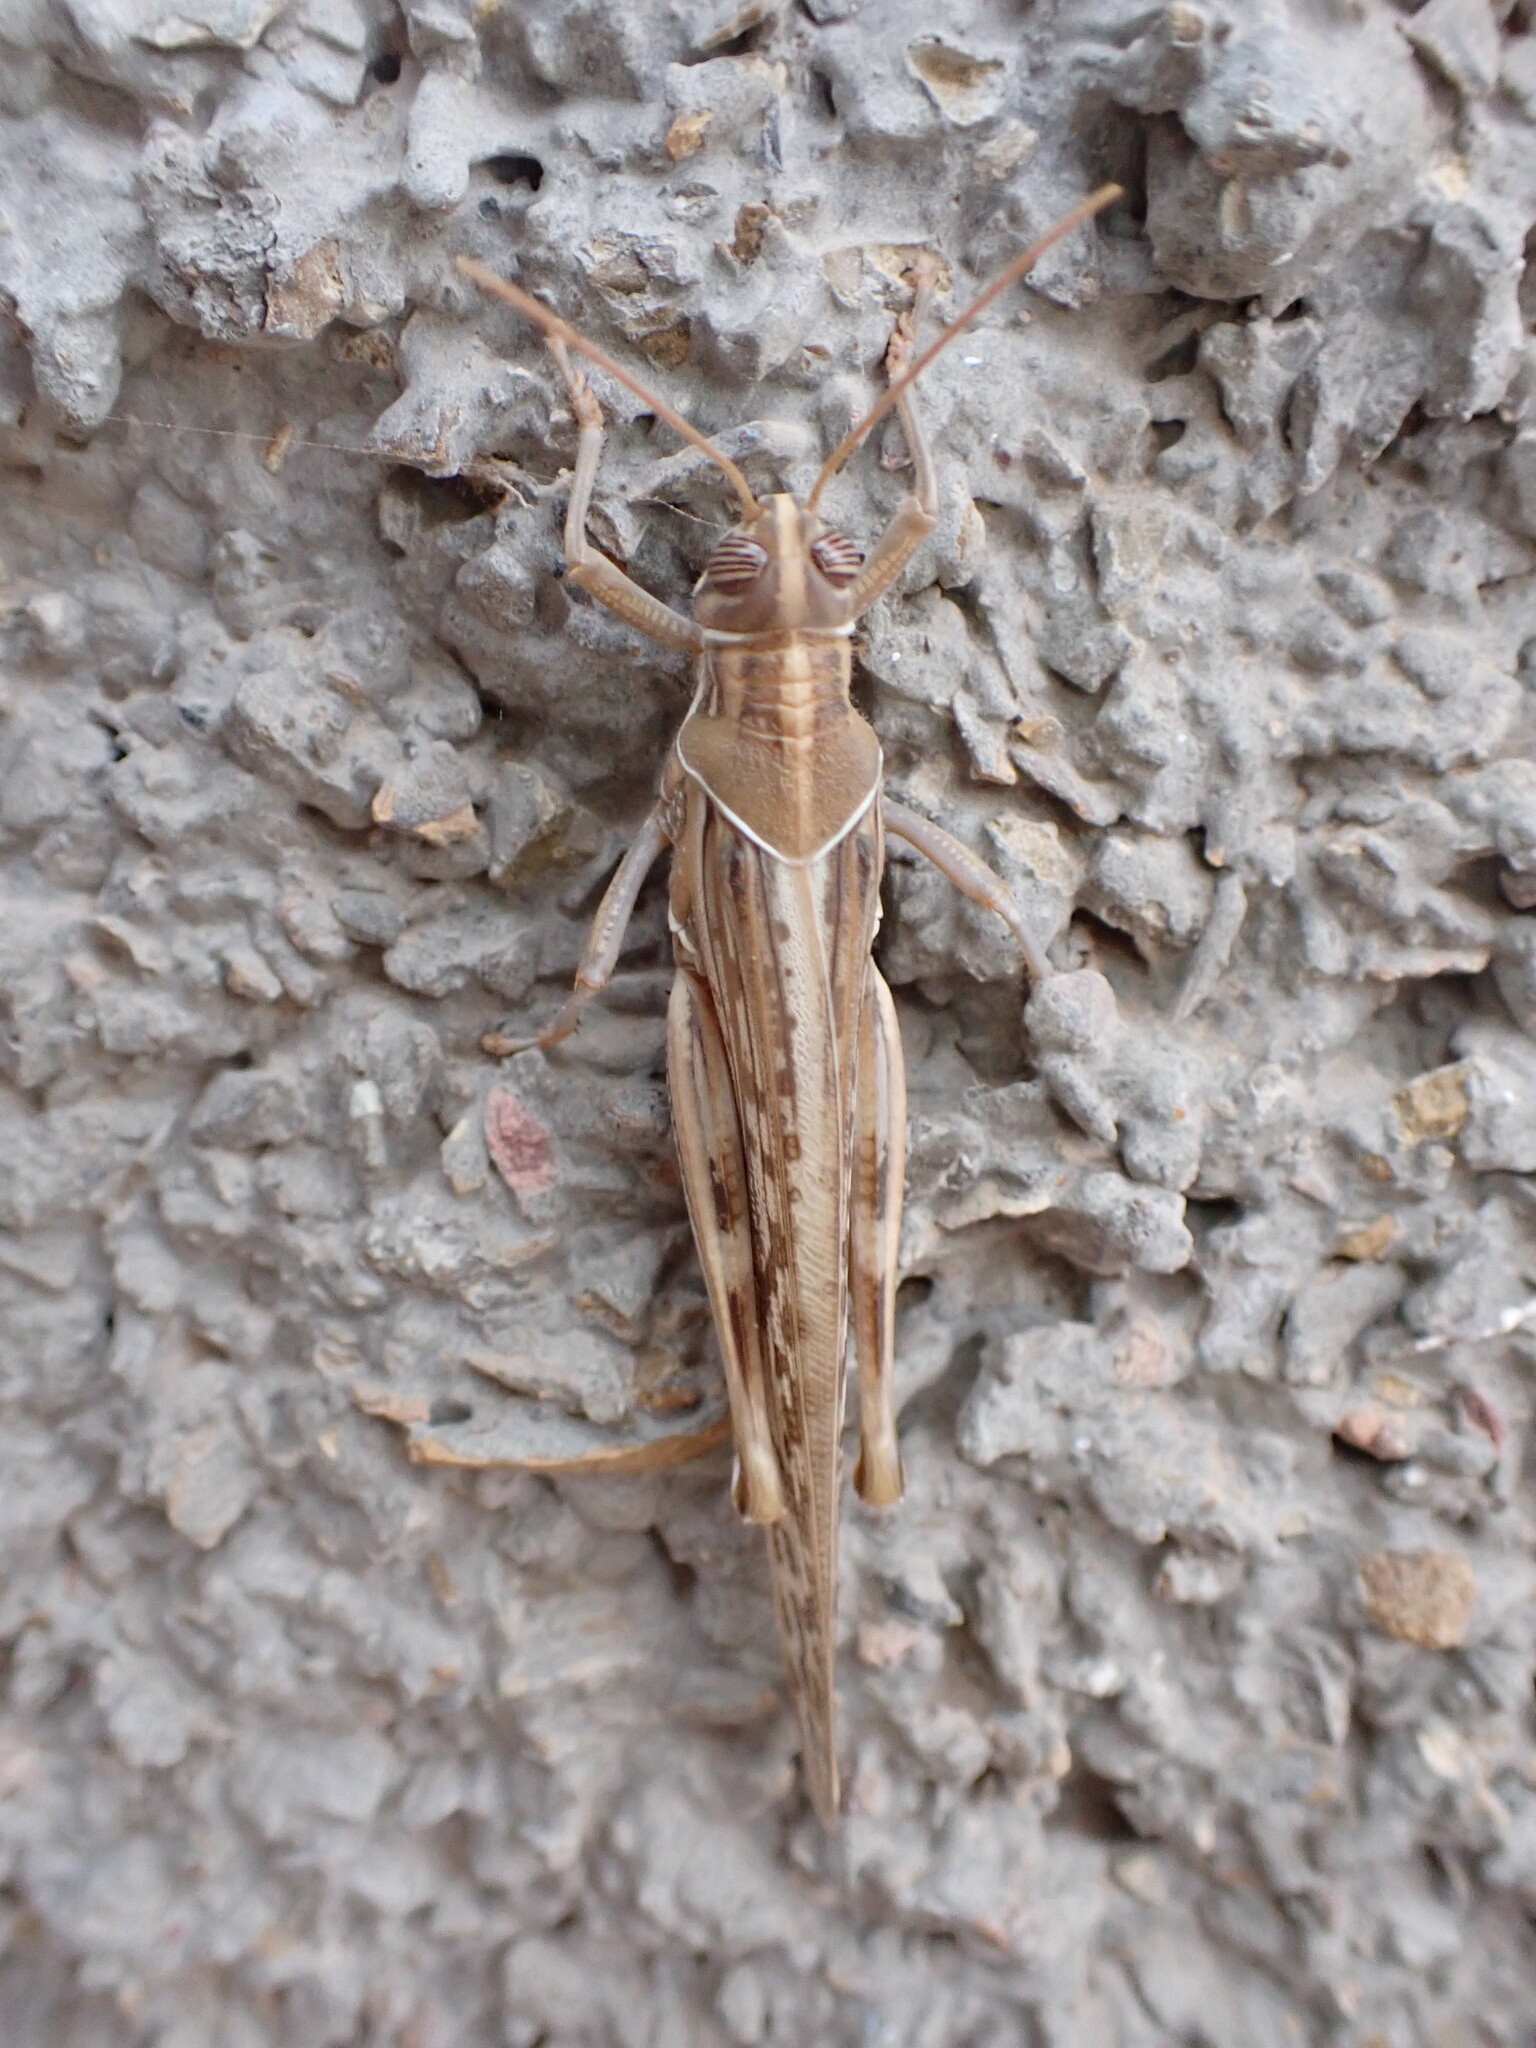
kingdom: Animalia
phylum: Arthropoda
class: Insecta
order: Orthoptera
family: Acrididae
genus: Schistocerca
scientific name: Schistocerca gregaria
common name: Desert locust
